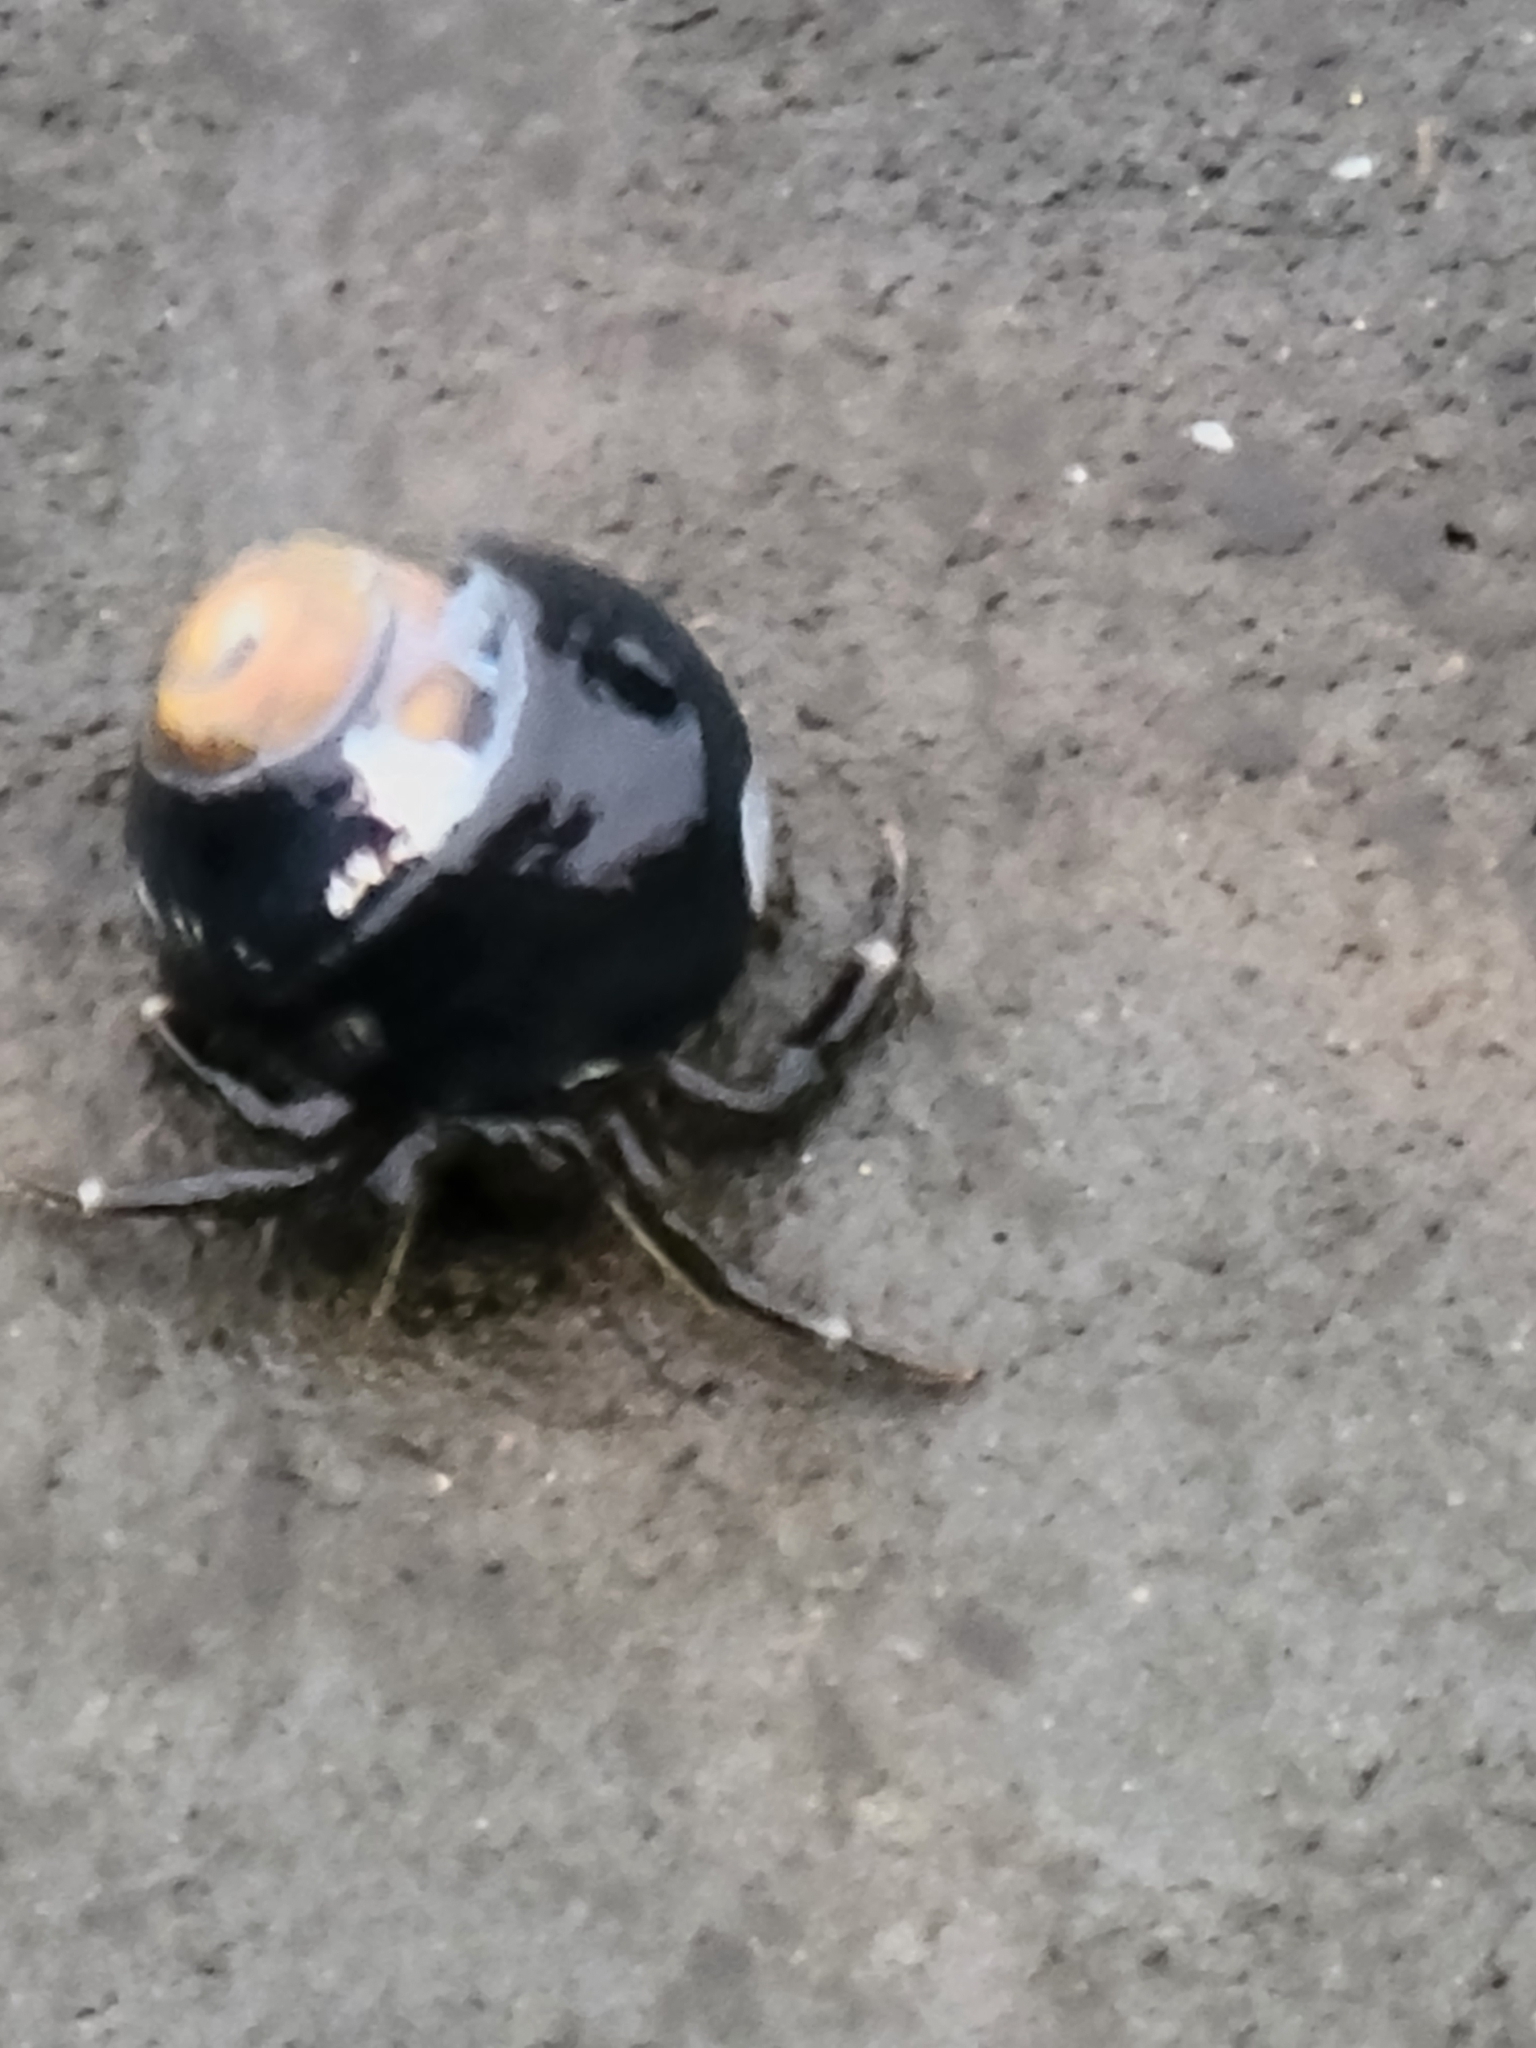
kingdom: Animalia
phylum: Arthropoda
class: Malacostraca
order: Decapoda
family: Paguridae
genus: Pagurus
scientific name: Pagurus hirsutiusculus
